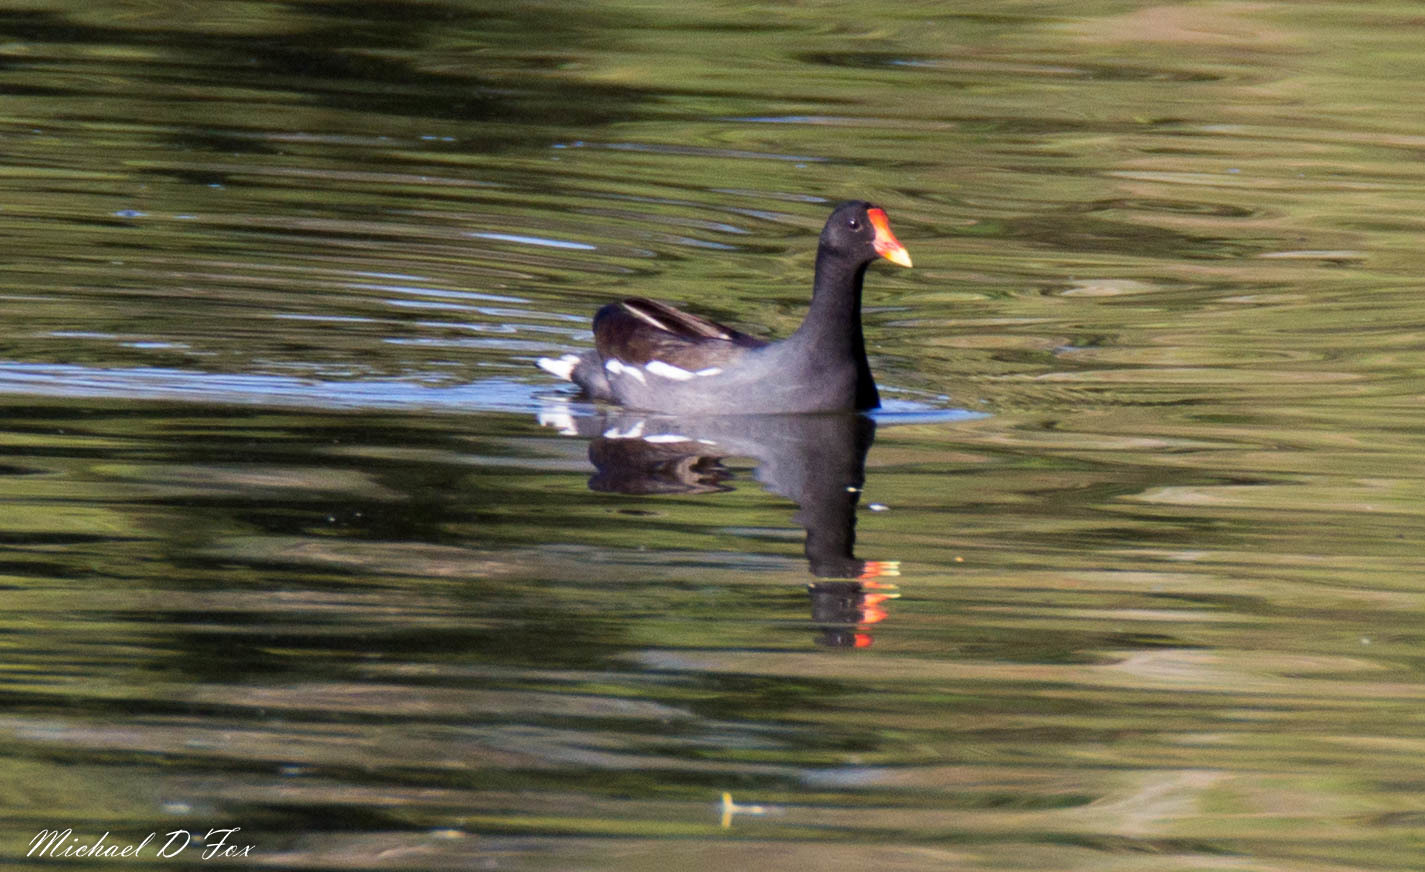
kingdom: Animalia
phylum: Chordata
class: Aves
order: Gruiformes
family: Rallidae
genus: Gallinula
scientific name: Gallinula chloropus
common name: Common moorhen
